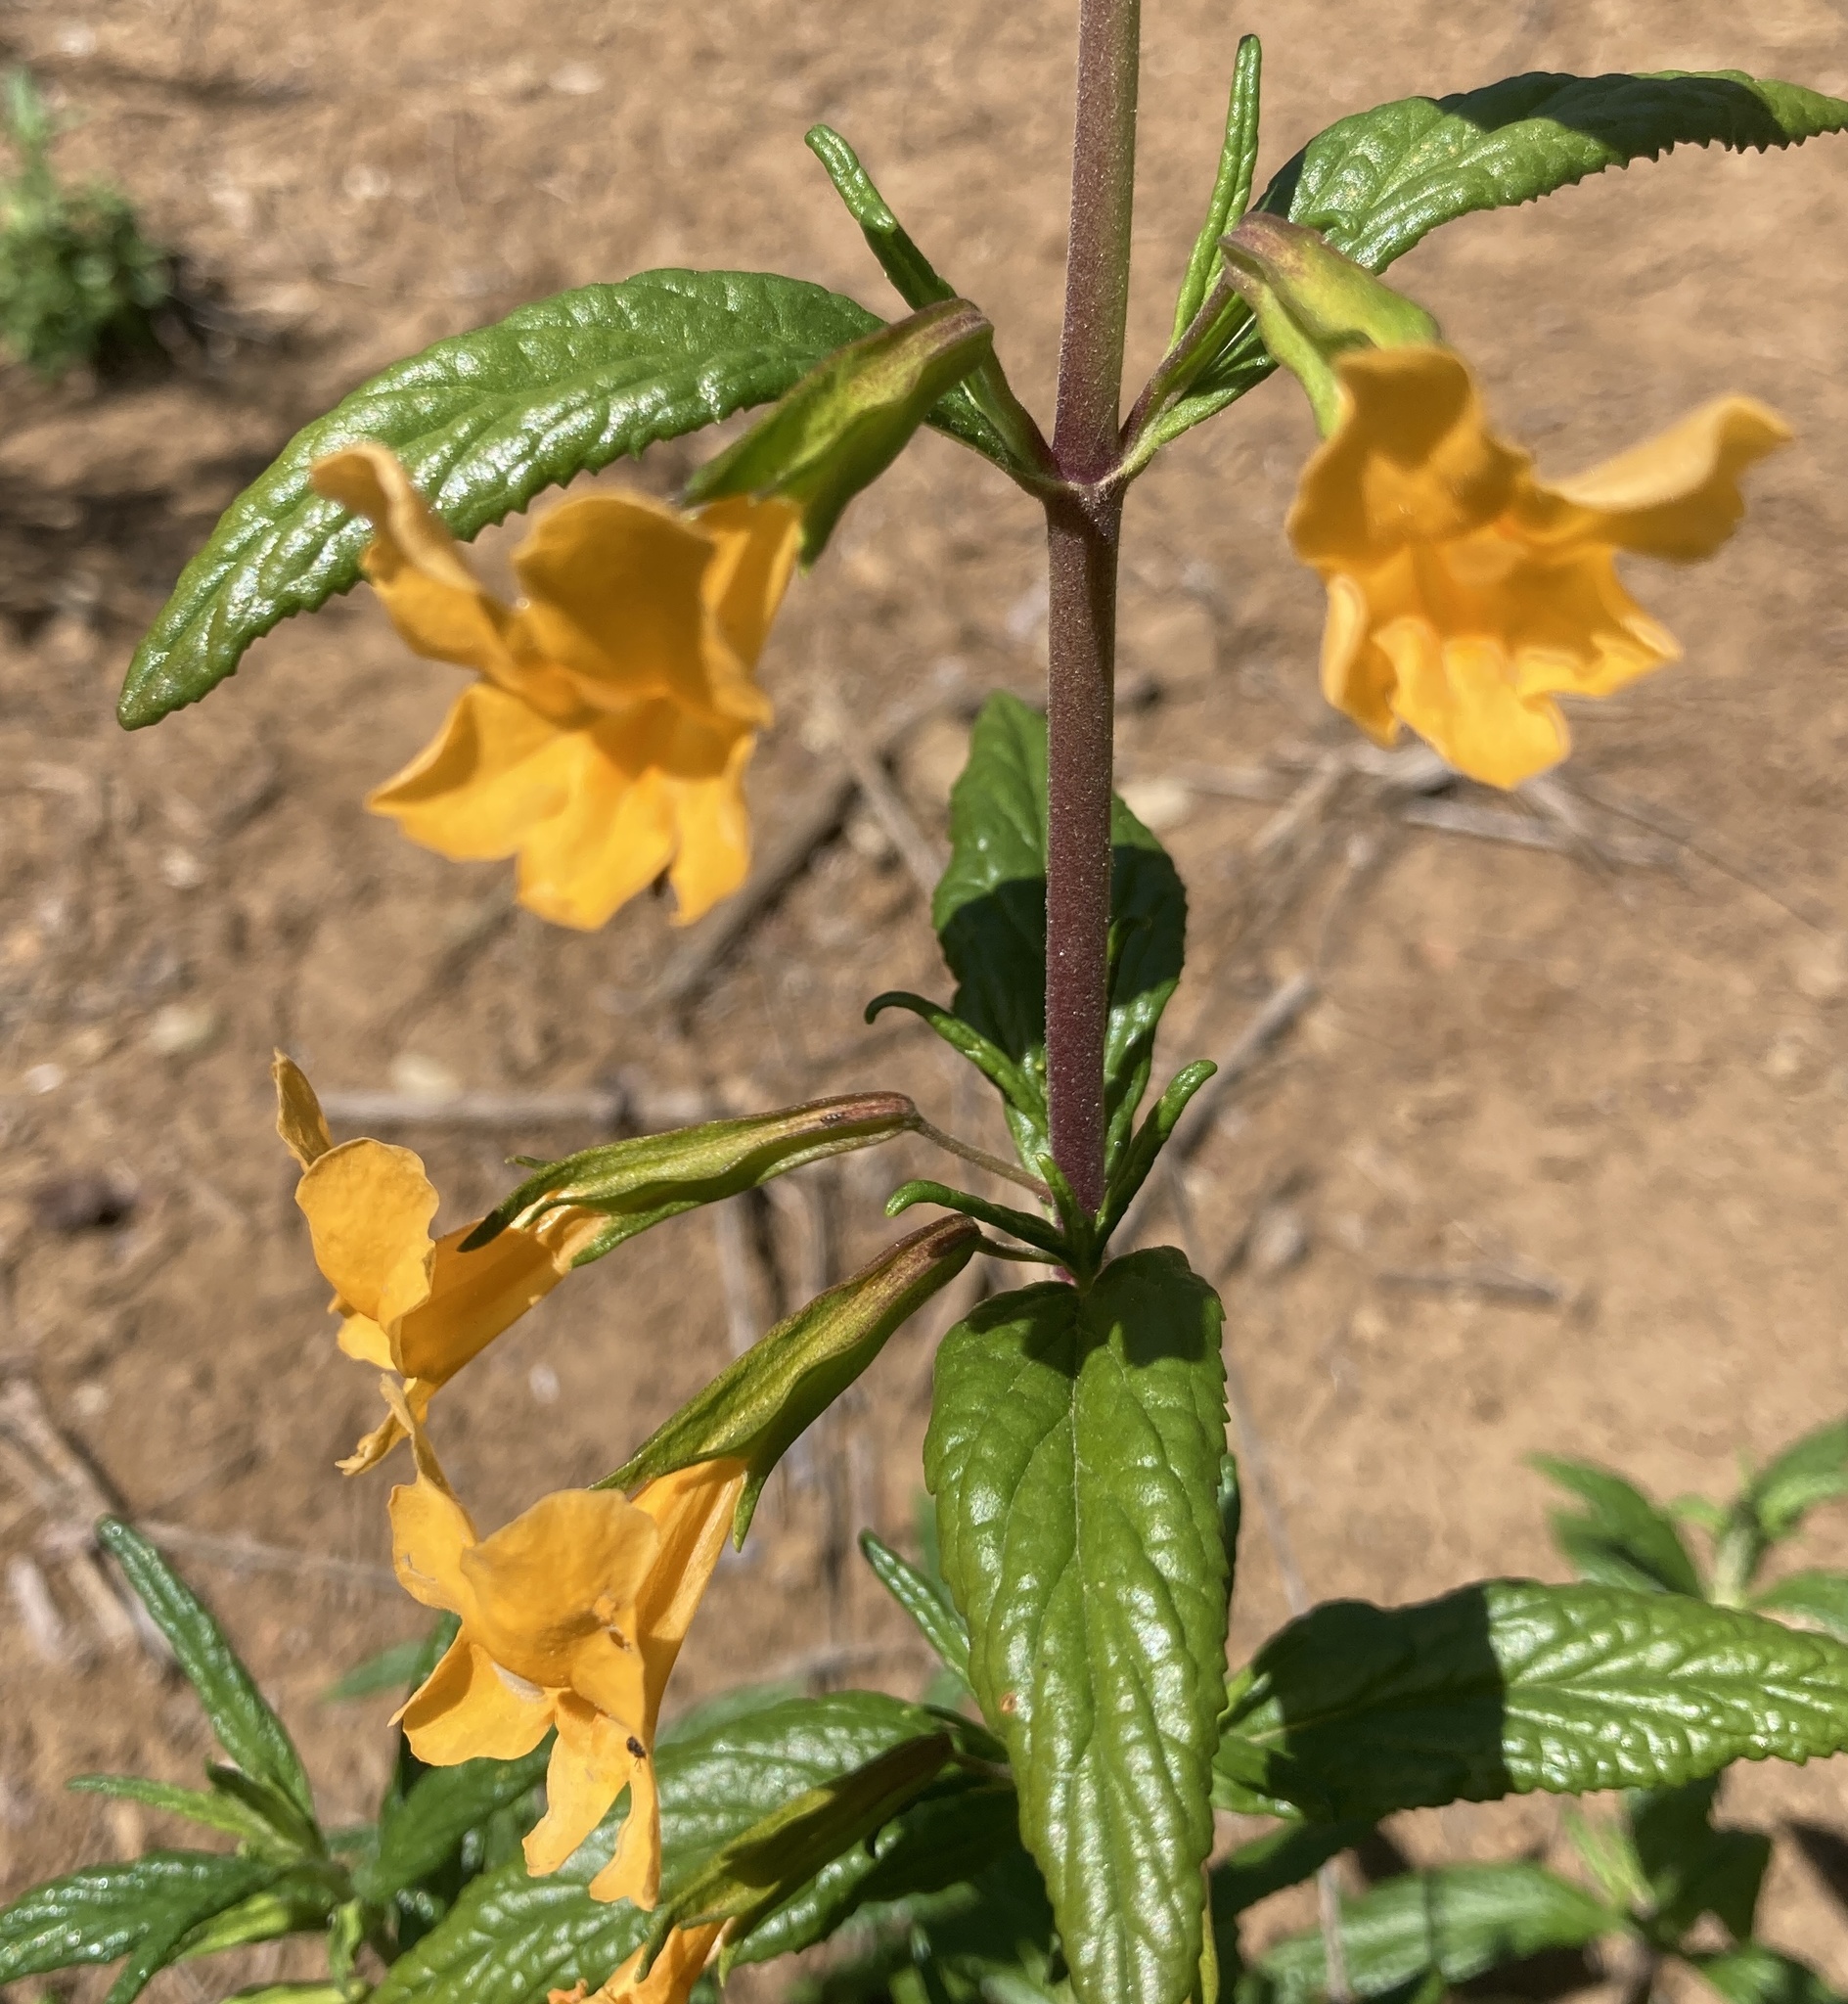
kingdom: Plantae
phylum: Tracheophyta
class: Magnoliopsida
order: Lamiales
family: Phrymaceae
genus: Diplacus
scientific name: Diplacus aurantiacus
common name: Bush monkey-flower
